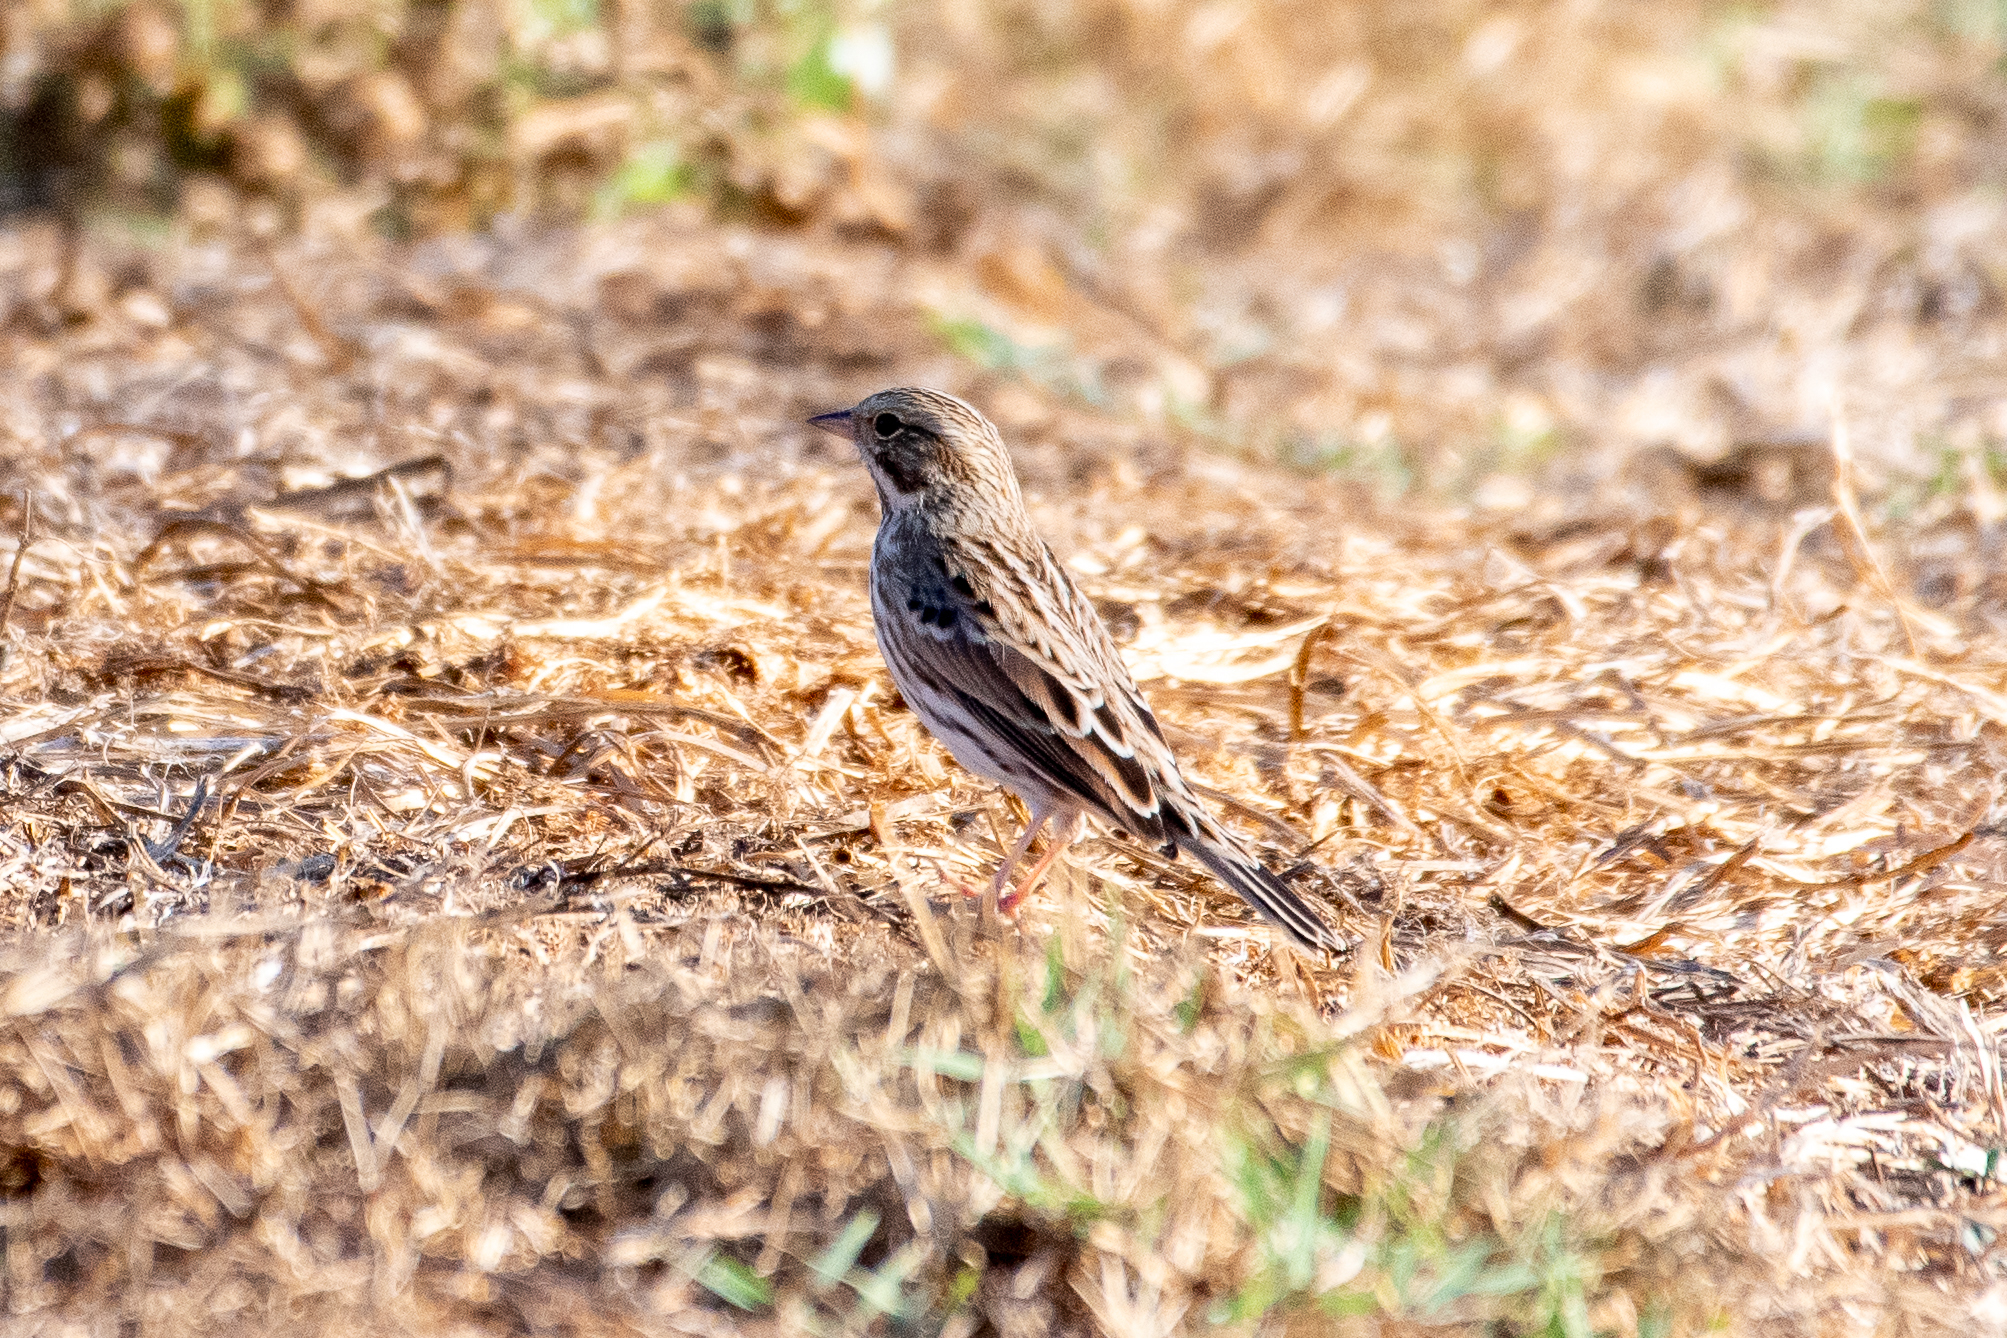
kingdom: Animalia
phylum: Chordata
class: Aves
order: Passeriformes
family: Passerellidae
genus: Passerculus
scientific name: Passerculus sandwichensis
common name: Savannah sparrow
